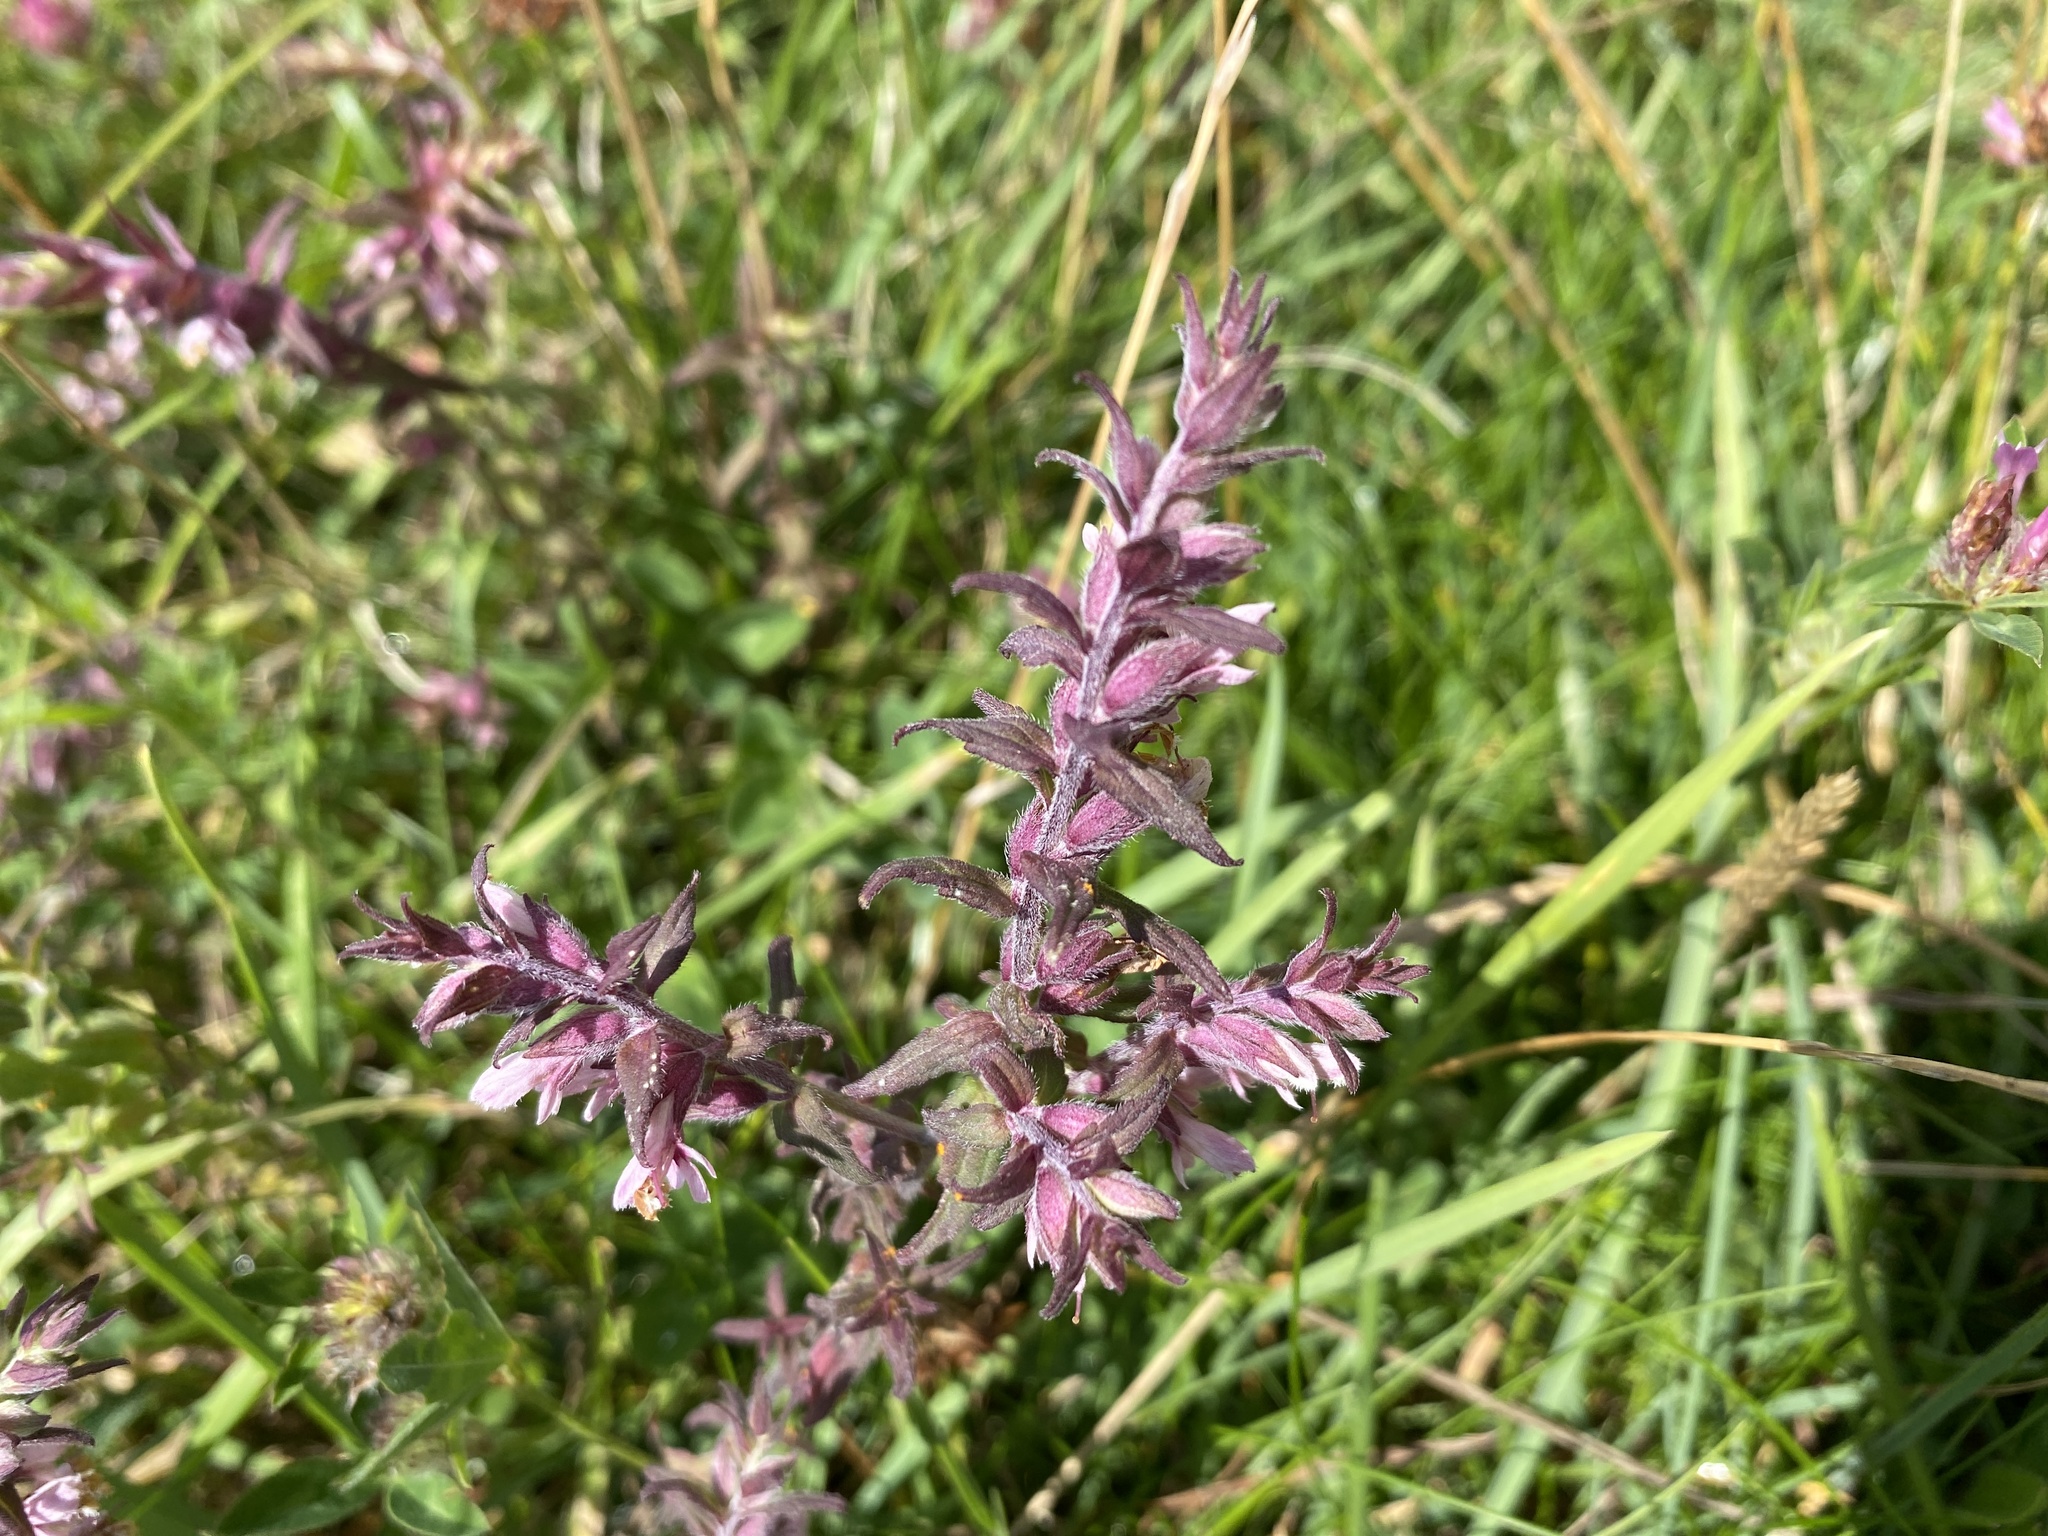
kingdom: Plantae
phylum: Tracheophyta
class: Magnoliopsida
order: Lamiales
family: Orobanchaceae
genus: Odontites
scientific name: Odontites vernus
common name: Red bartsia
